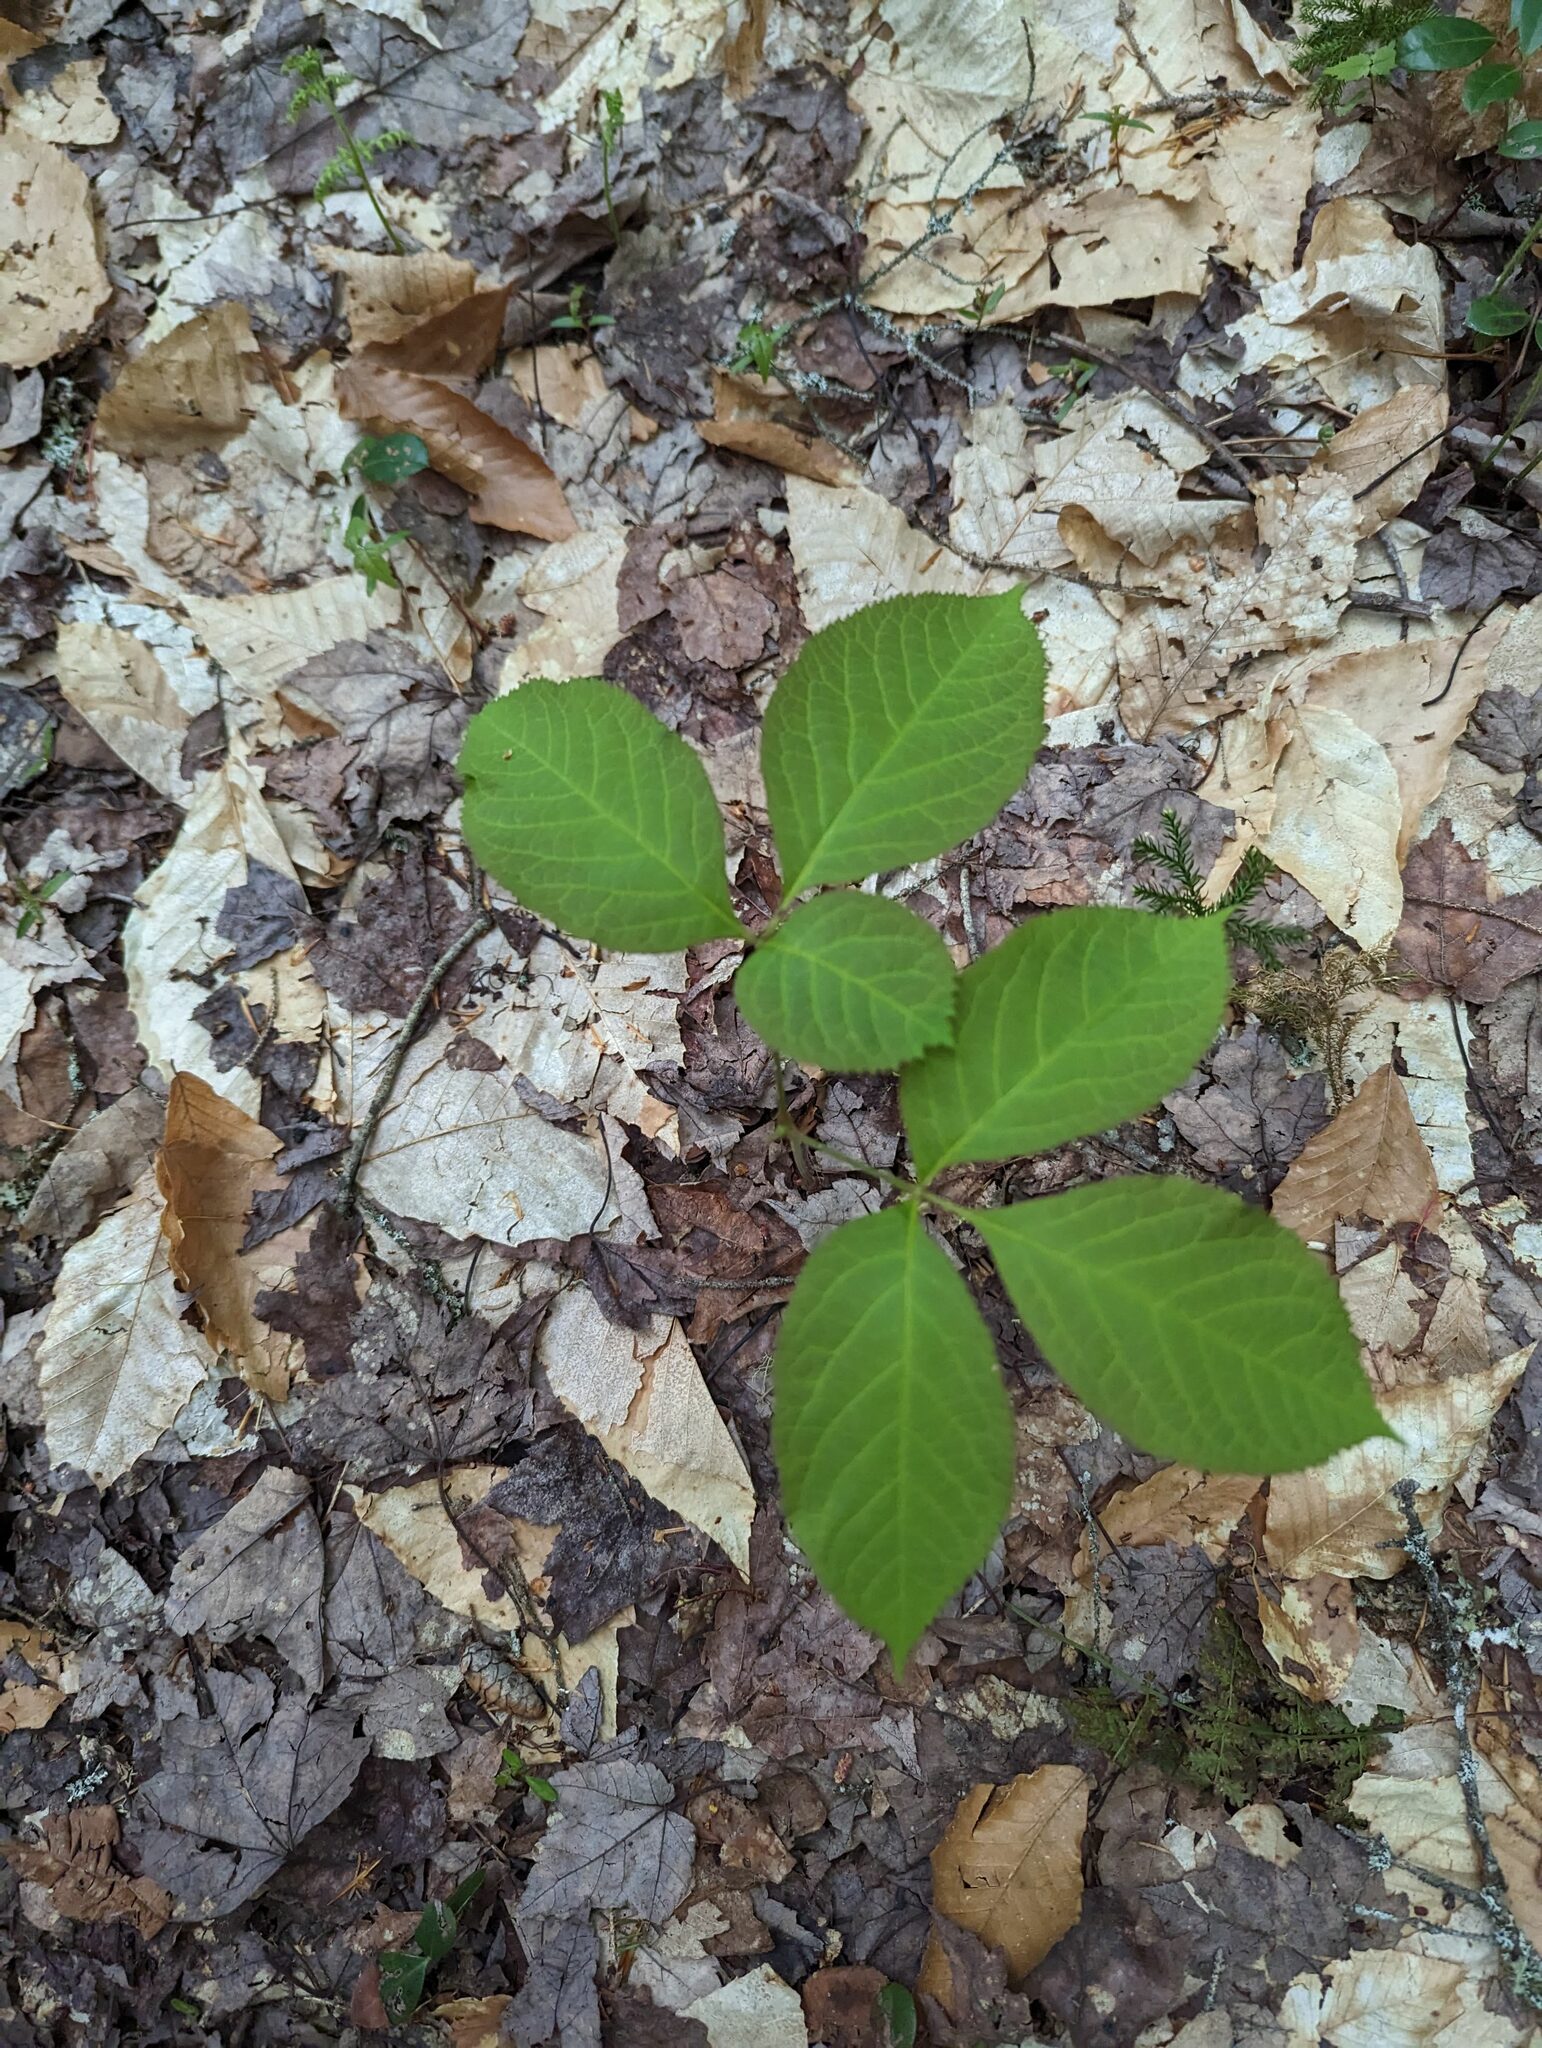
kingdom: Plantae
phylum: Tracheophyta
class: Magnoliopsida
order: Apiales
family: Araliaceae
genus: Aralia
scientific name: Aralia nudicaulis
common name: Wild sarsaparilla
